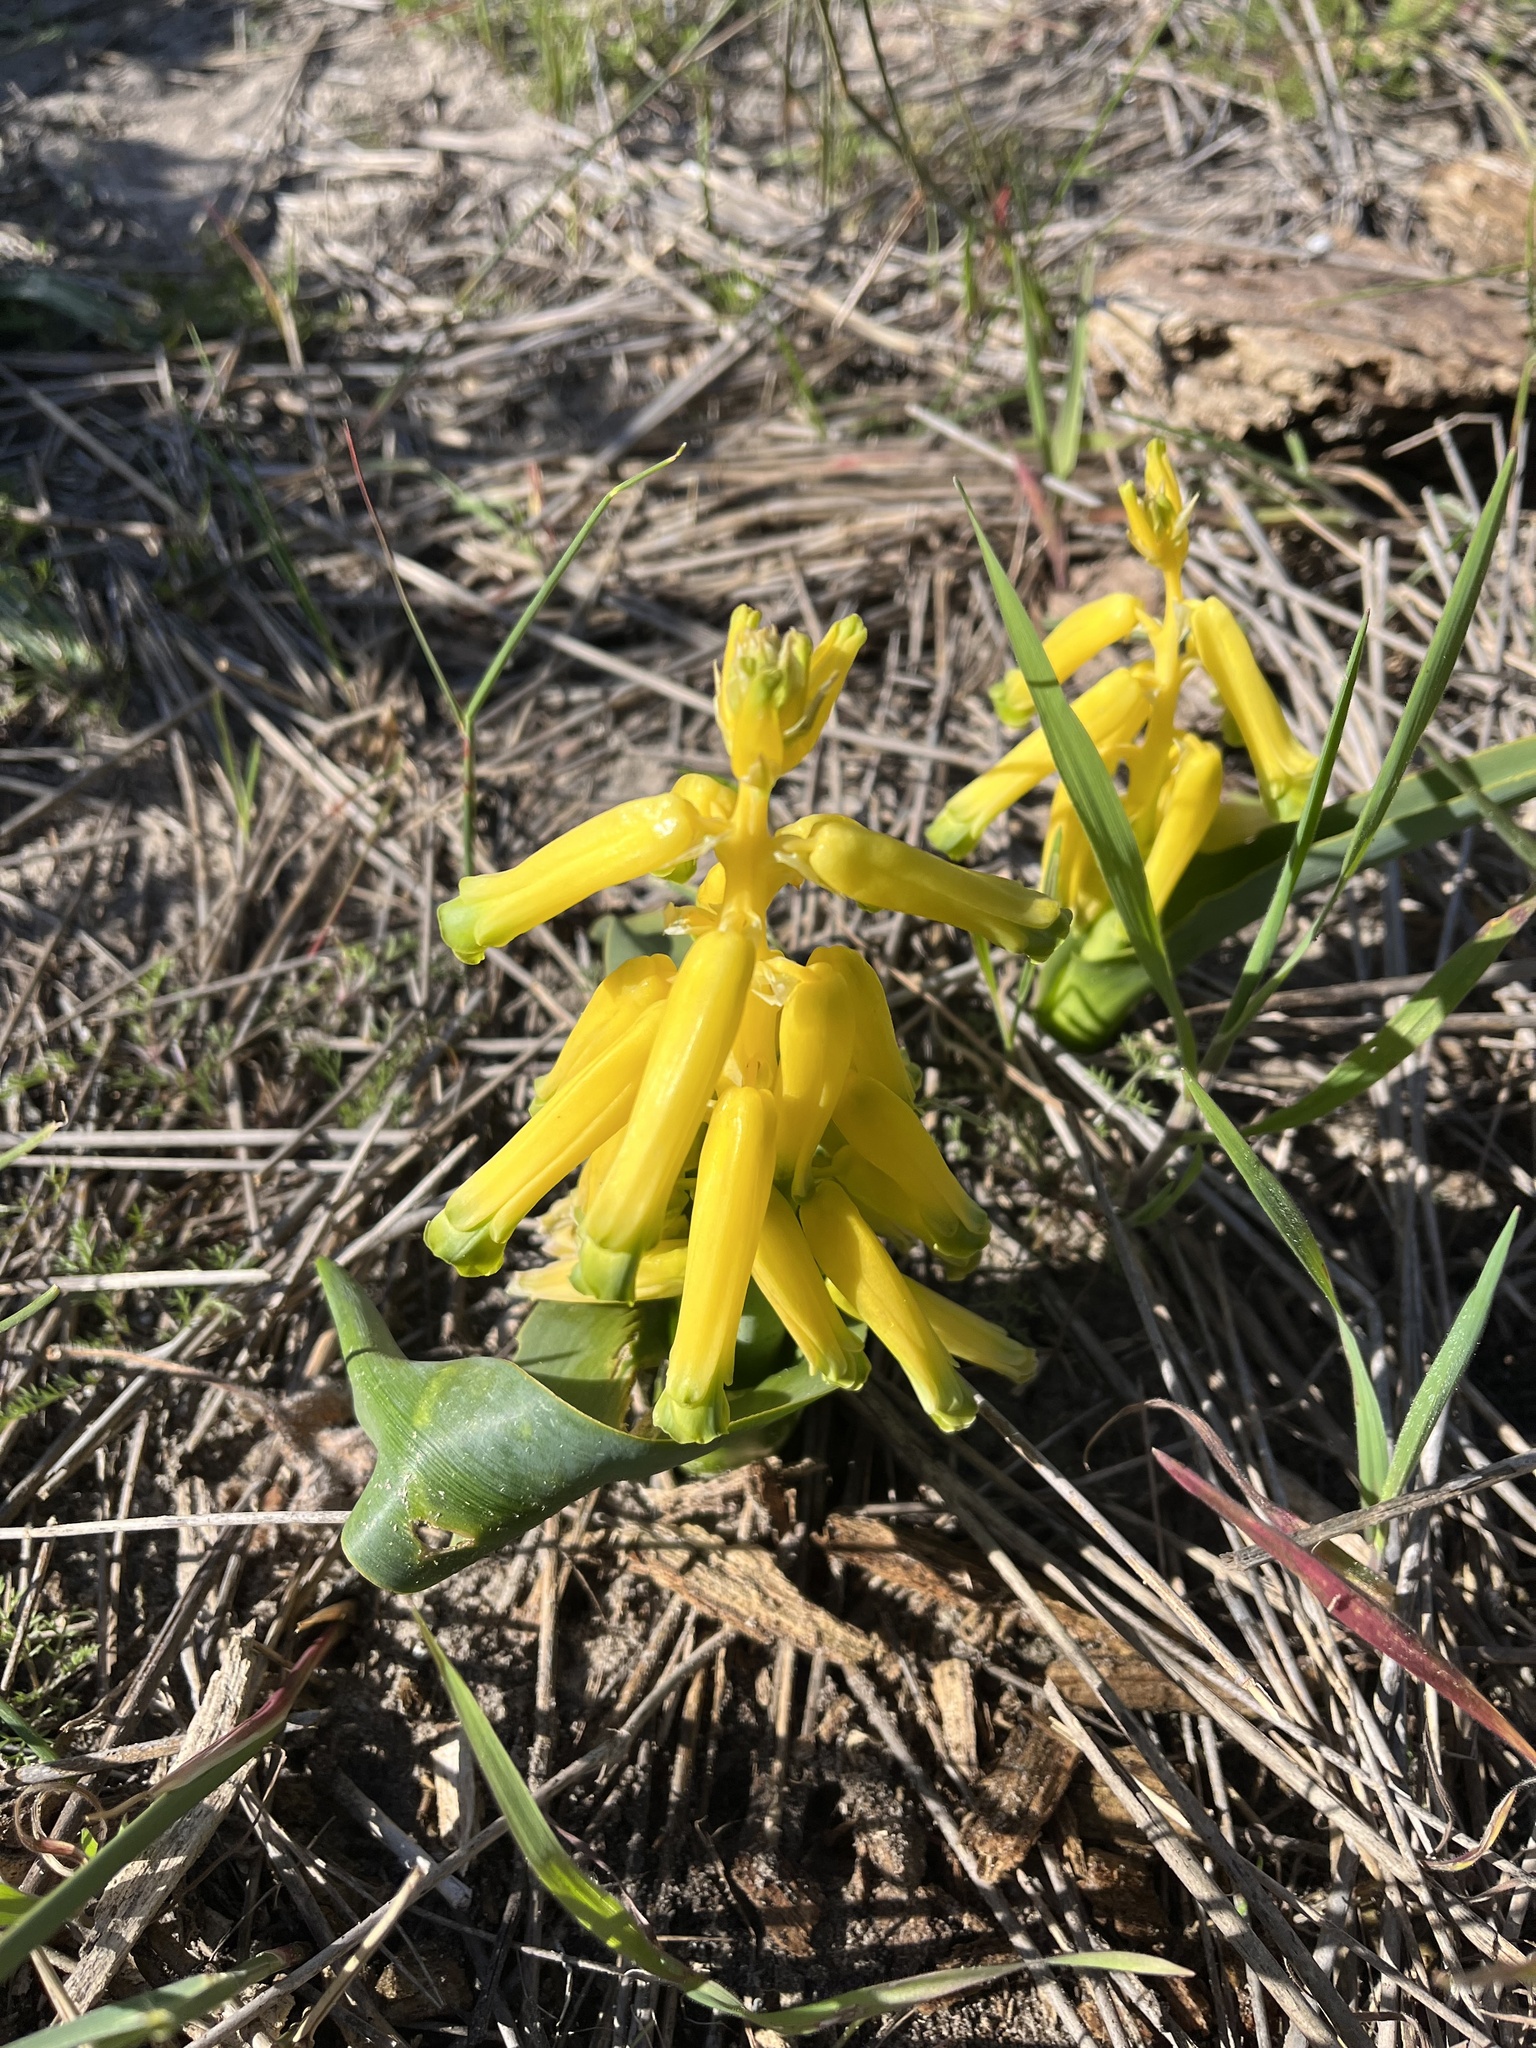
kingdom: Plantae
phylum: Tracheophyta
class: Liliopsida
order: Asparagales
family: Asparagaceae
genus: Lachenalia
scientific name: Lachenalia bulbifera
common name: Red lachenalia
